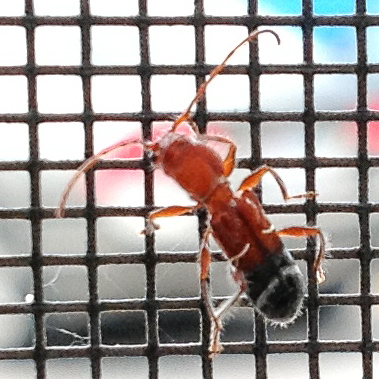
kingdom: Animalia
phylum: Arthropoda
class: Insecta
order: Coleoptera
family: Cerambycidae
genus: Euderces
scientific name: Euderces pini
